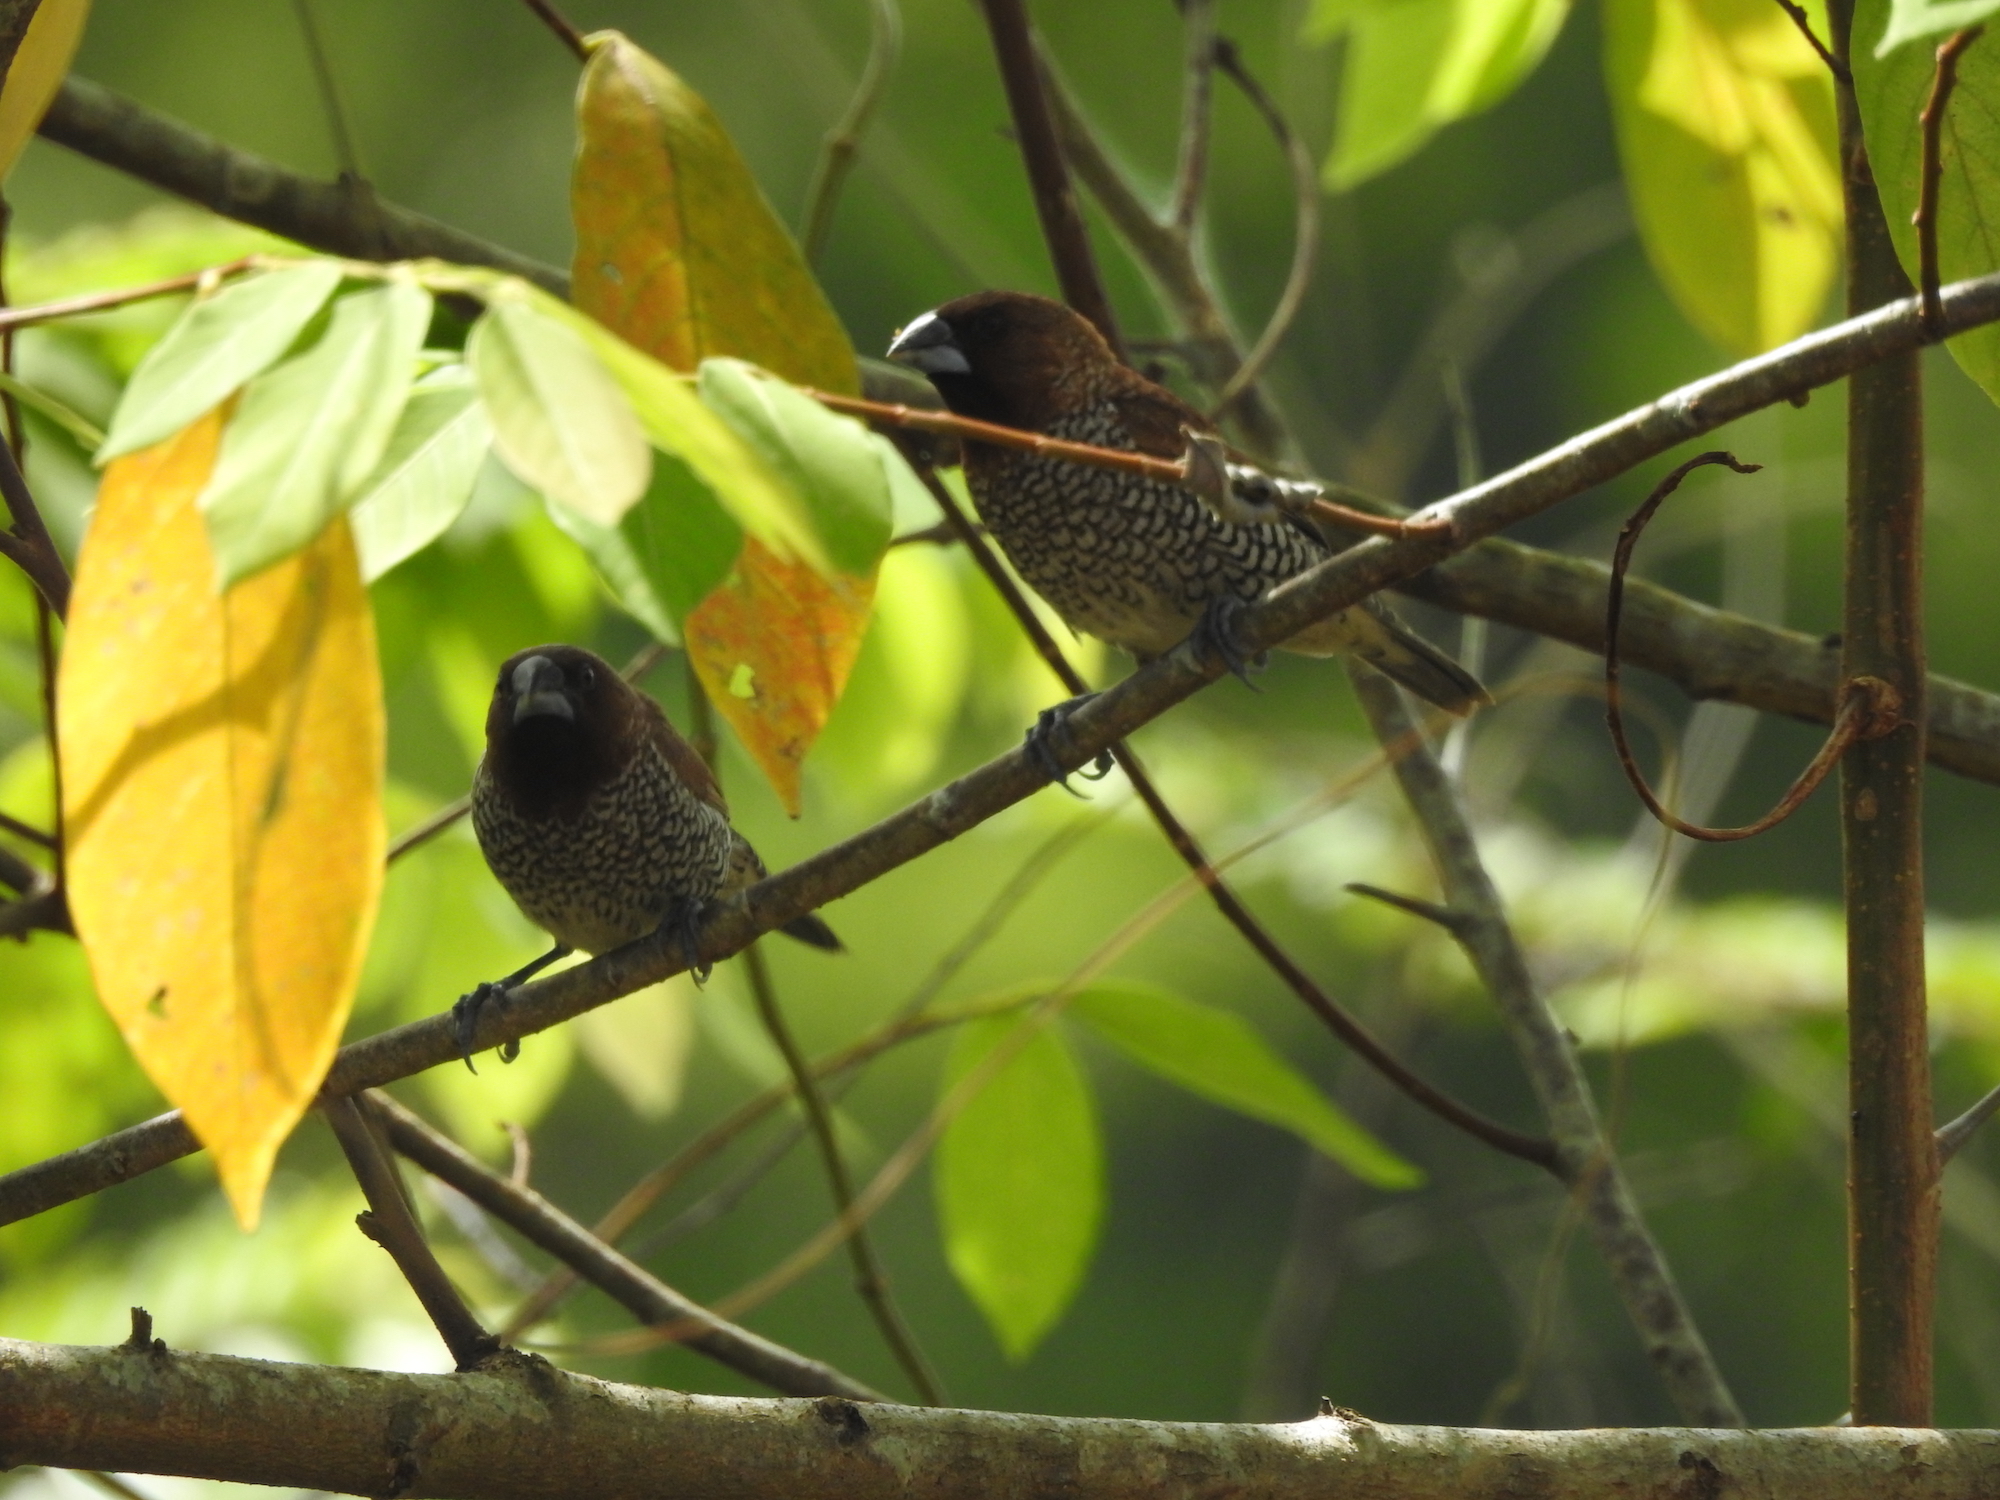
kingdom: Animalia
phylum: Chordata
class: Aves
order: Passeriformes
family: Estrildidae
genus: Lonchura
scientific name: Lonchura punctulata
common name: Scaly-breasted munia
